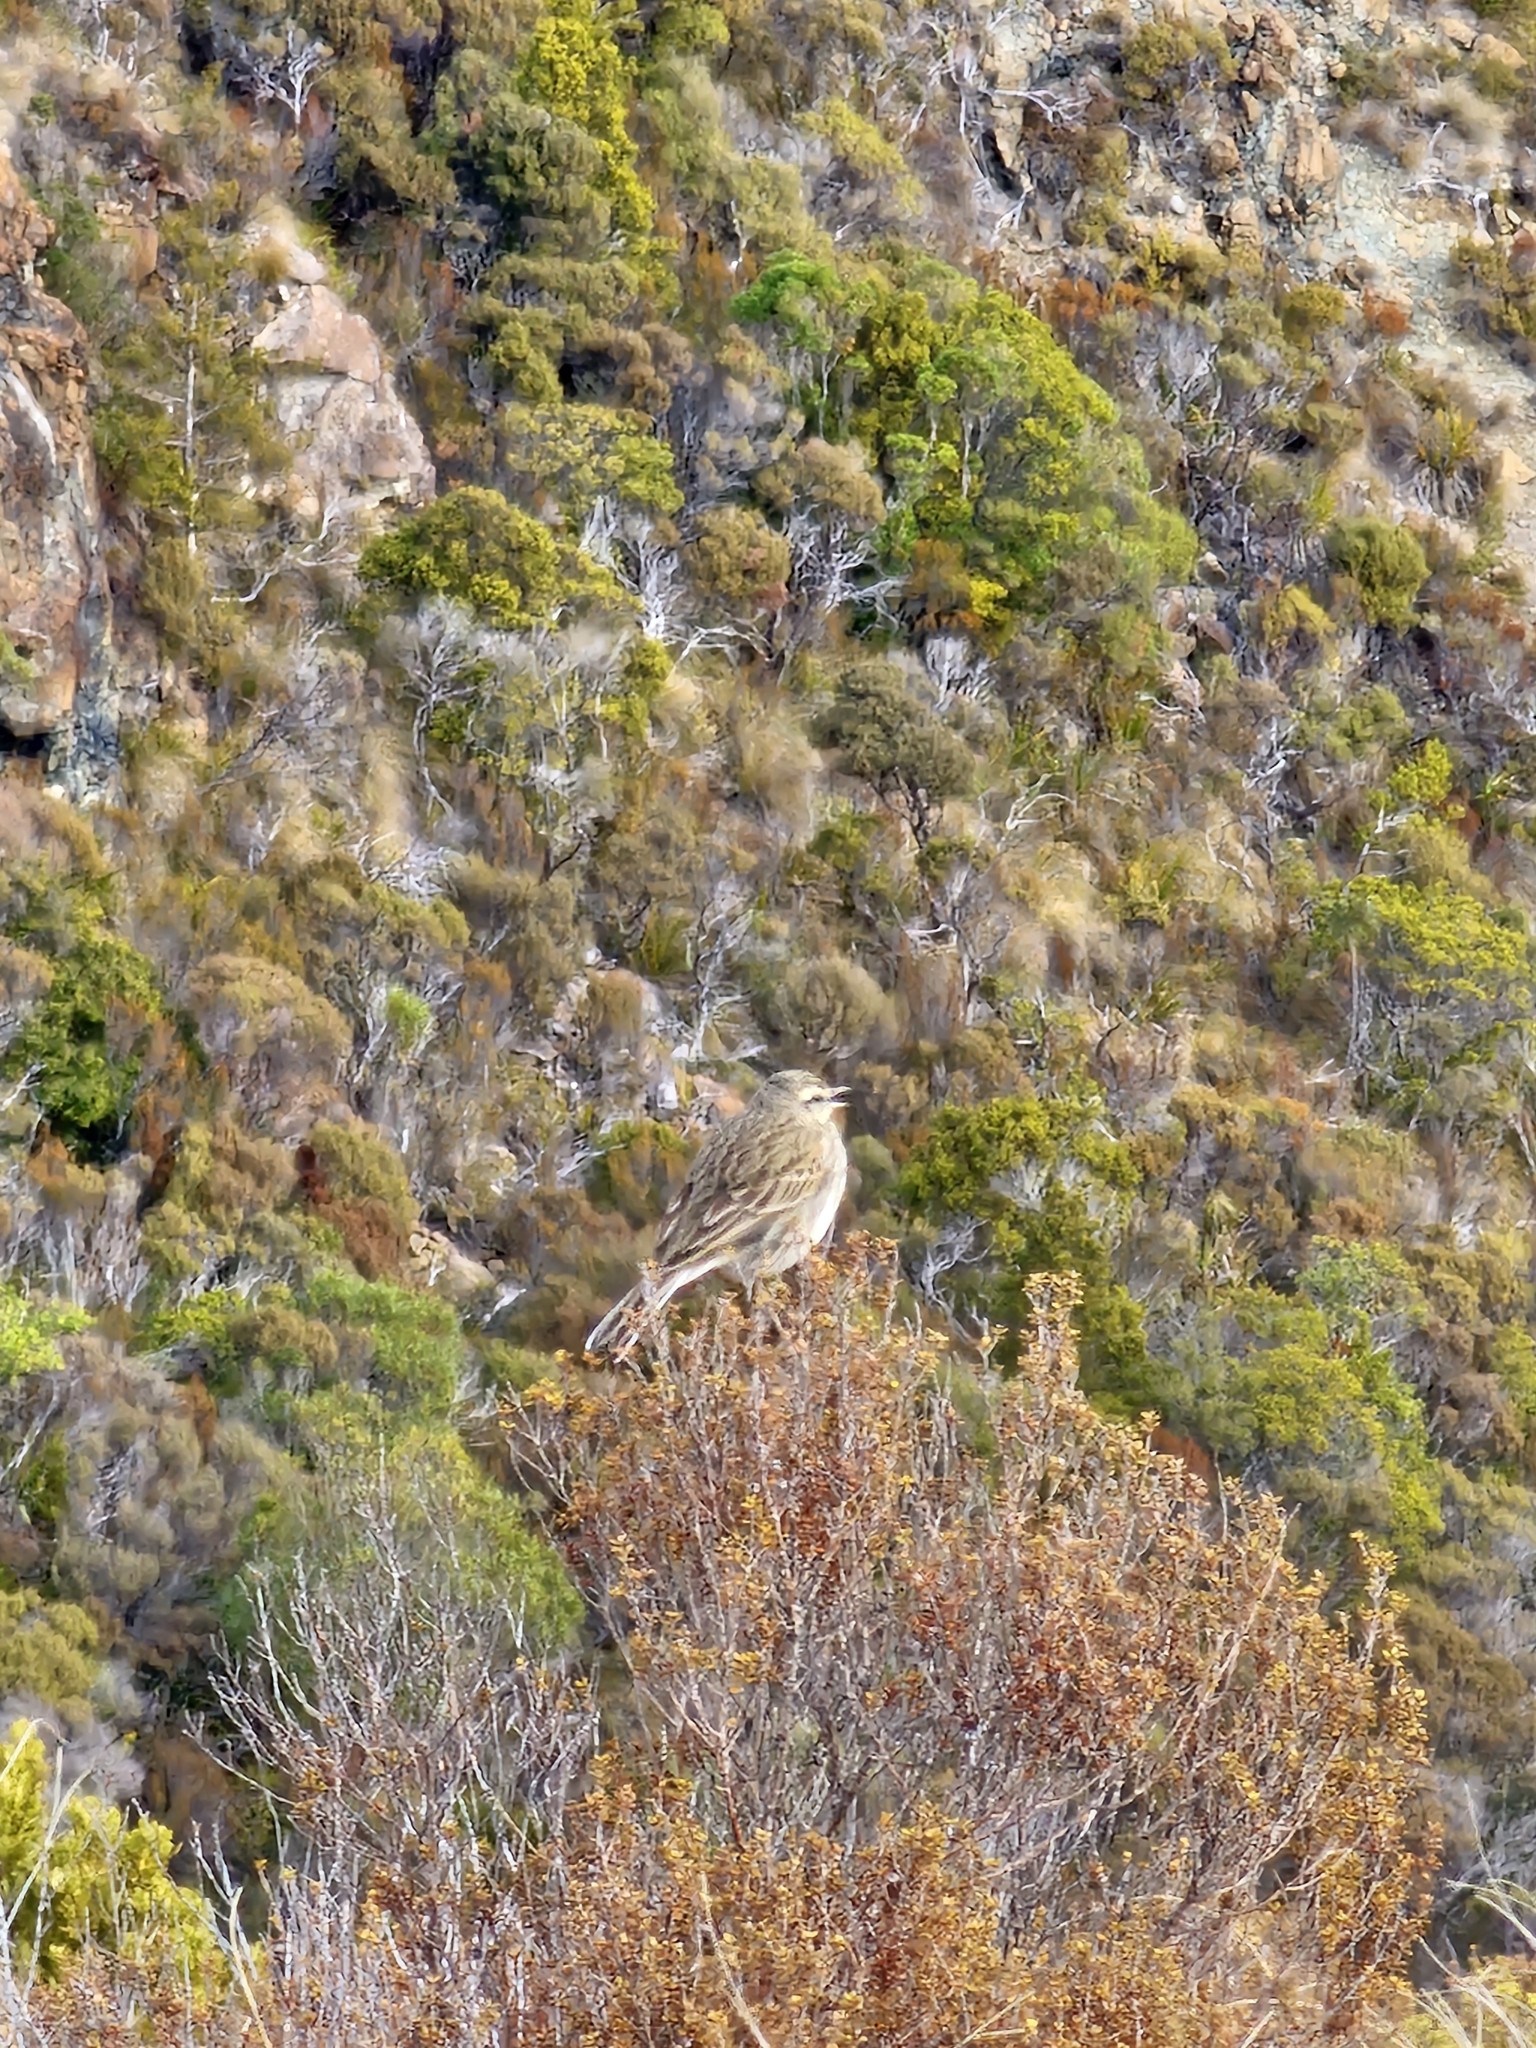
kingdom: Animalia
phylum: Chordata
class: Aves
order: Passeriformes
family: Motacillidae
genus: Anthus
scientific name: Anthus novaeseelandiae
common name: New zealand pipit
